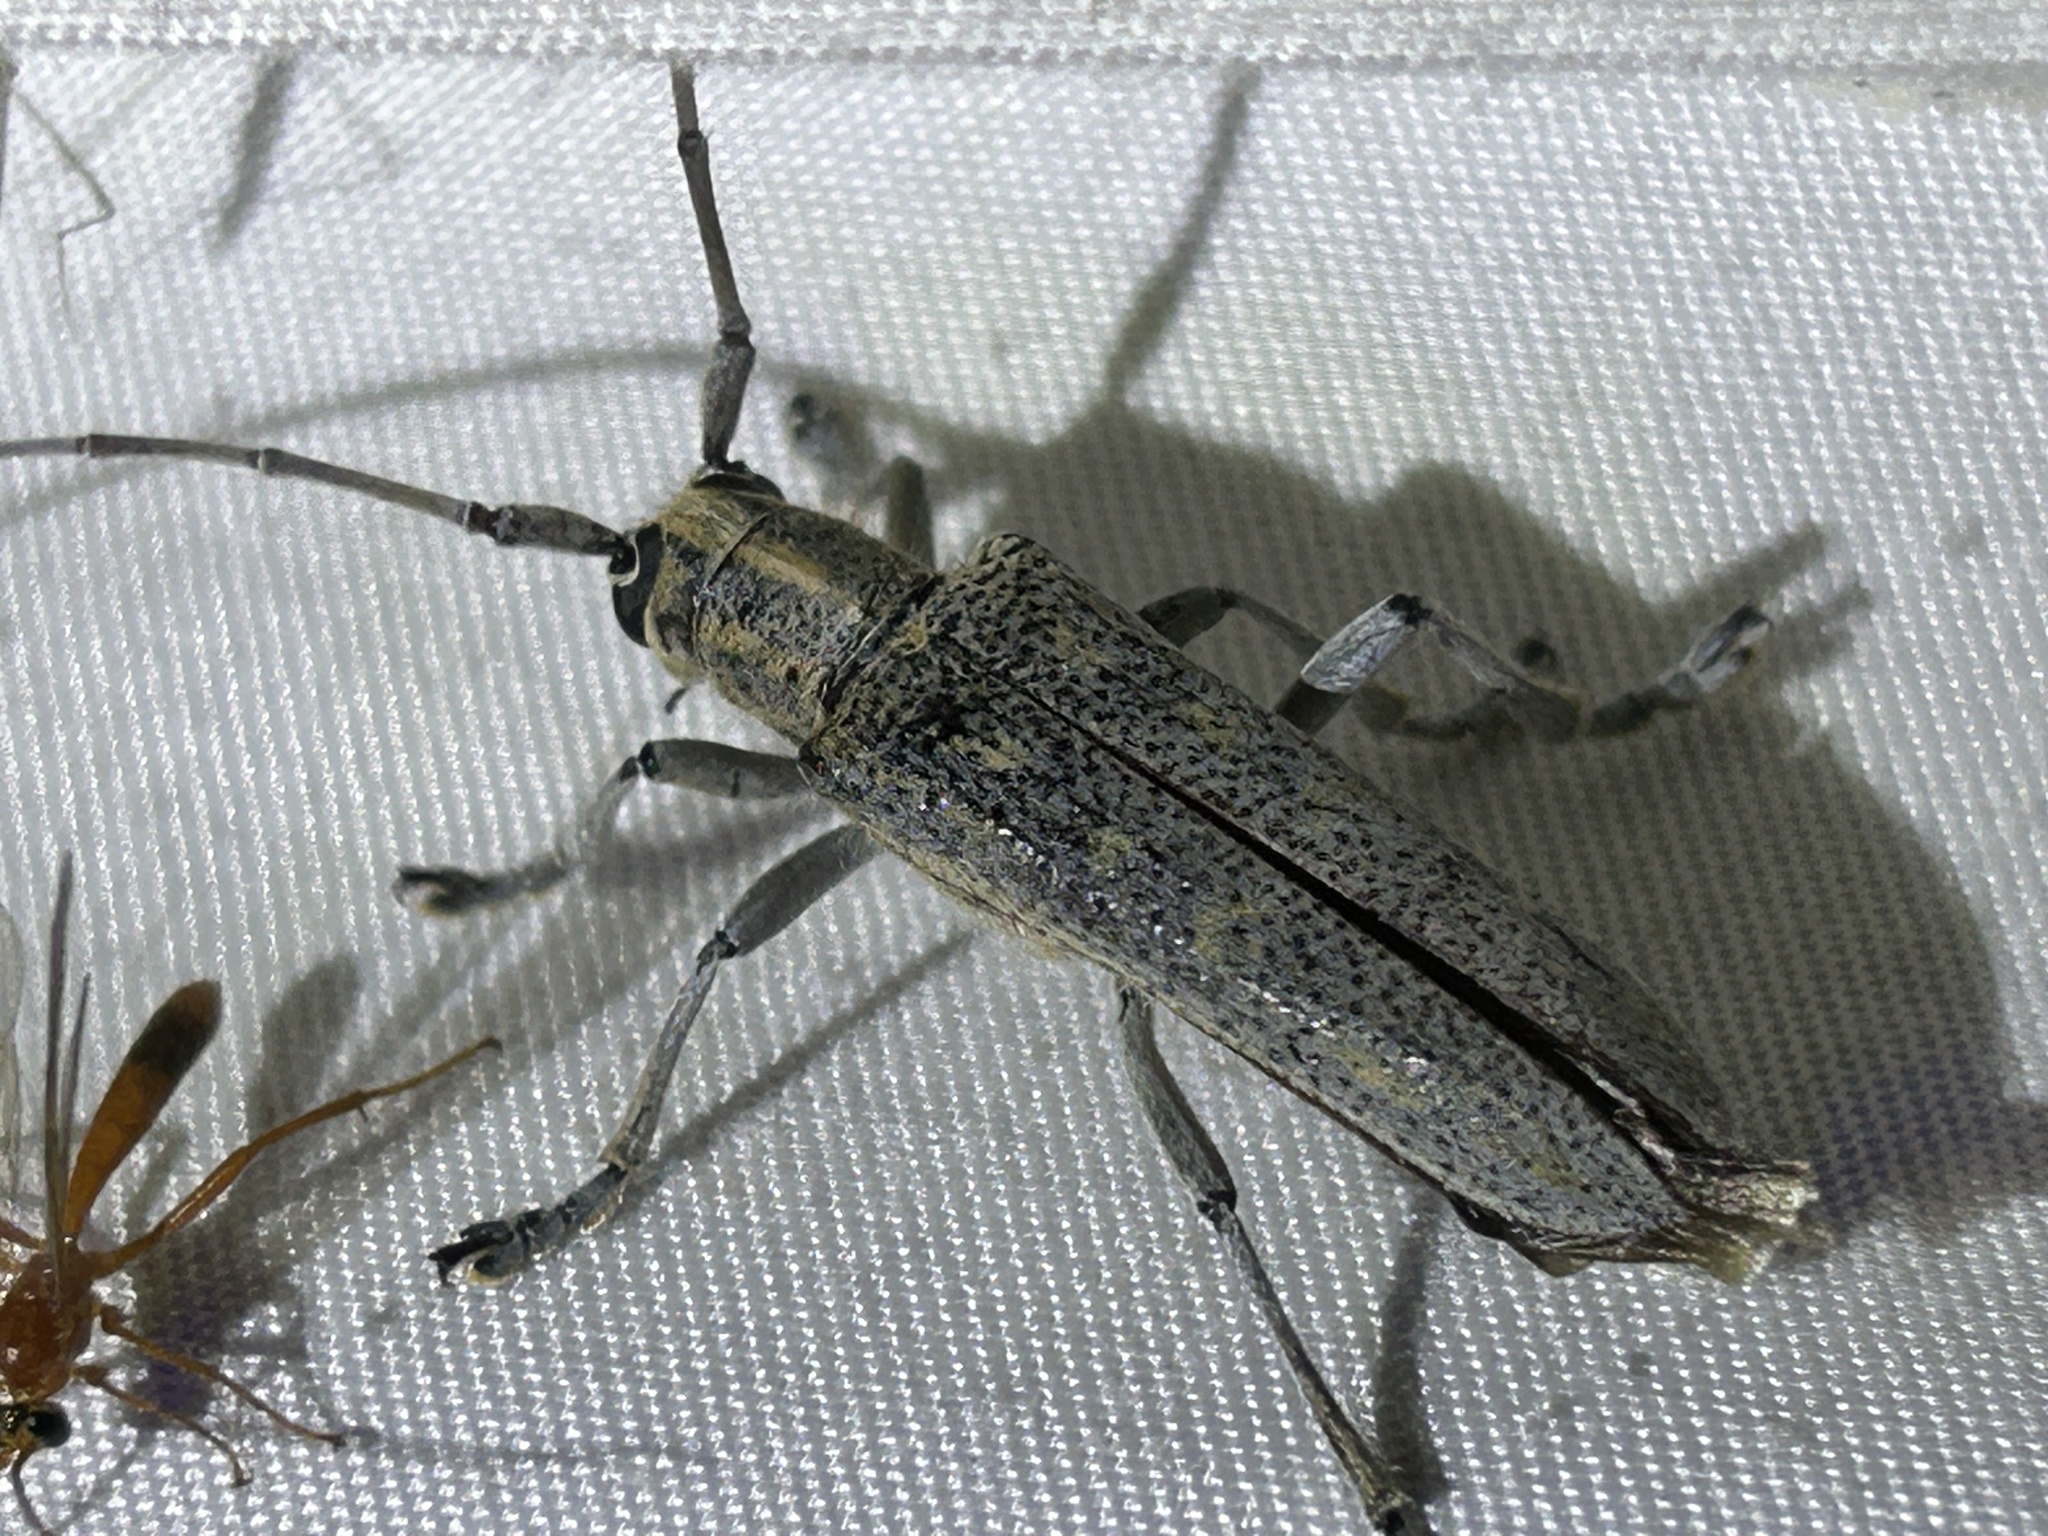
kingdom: Animalia
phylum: Arthropoda
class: Insecta
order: Coleoptera
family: Cerambycidae
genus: Saperda
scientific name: Saperda calcarata
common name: Poplar borer
